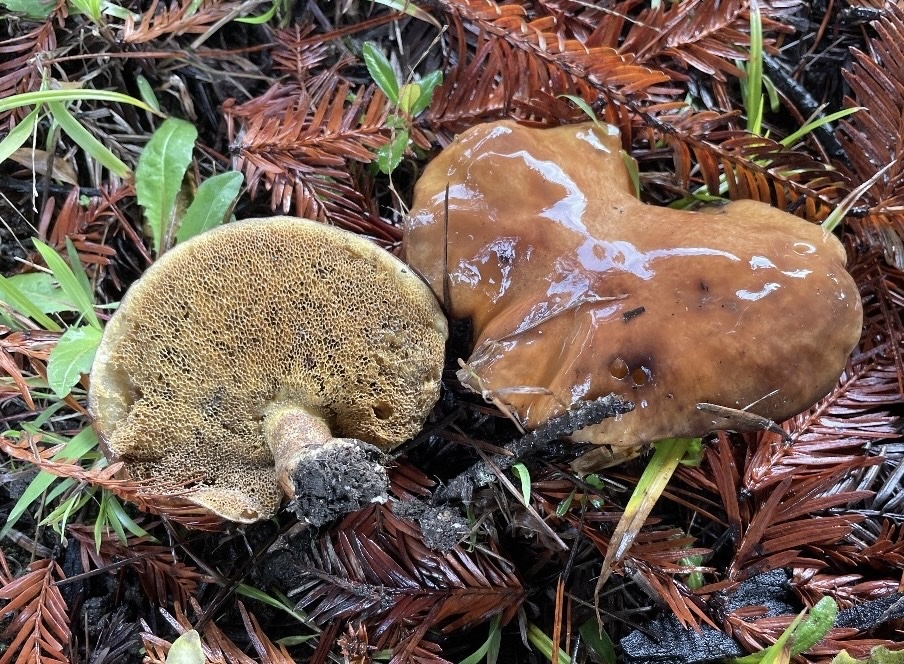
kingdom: Fungi
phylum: Basidiomycota
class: Agaricomycetes
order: Boletales
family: Suillaceae
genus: Suillus
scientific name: Suillus pungens
